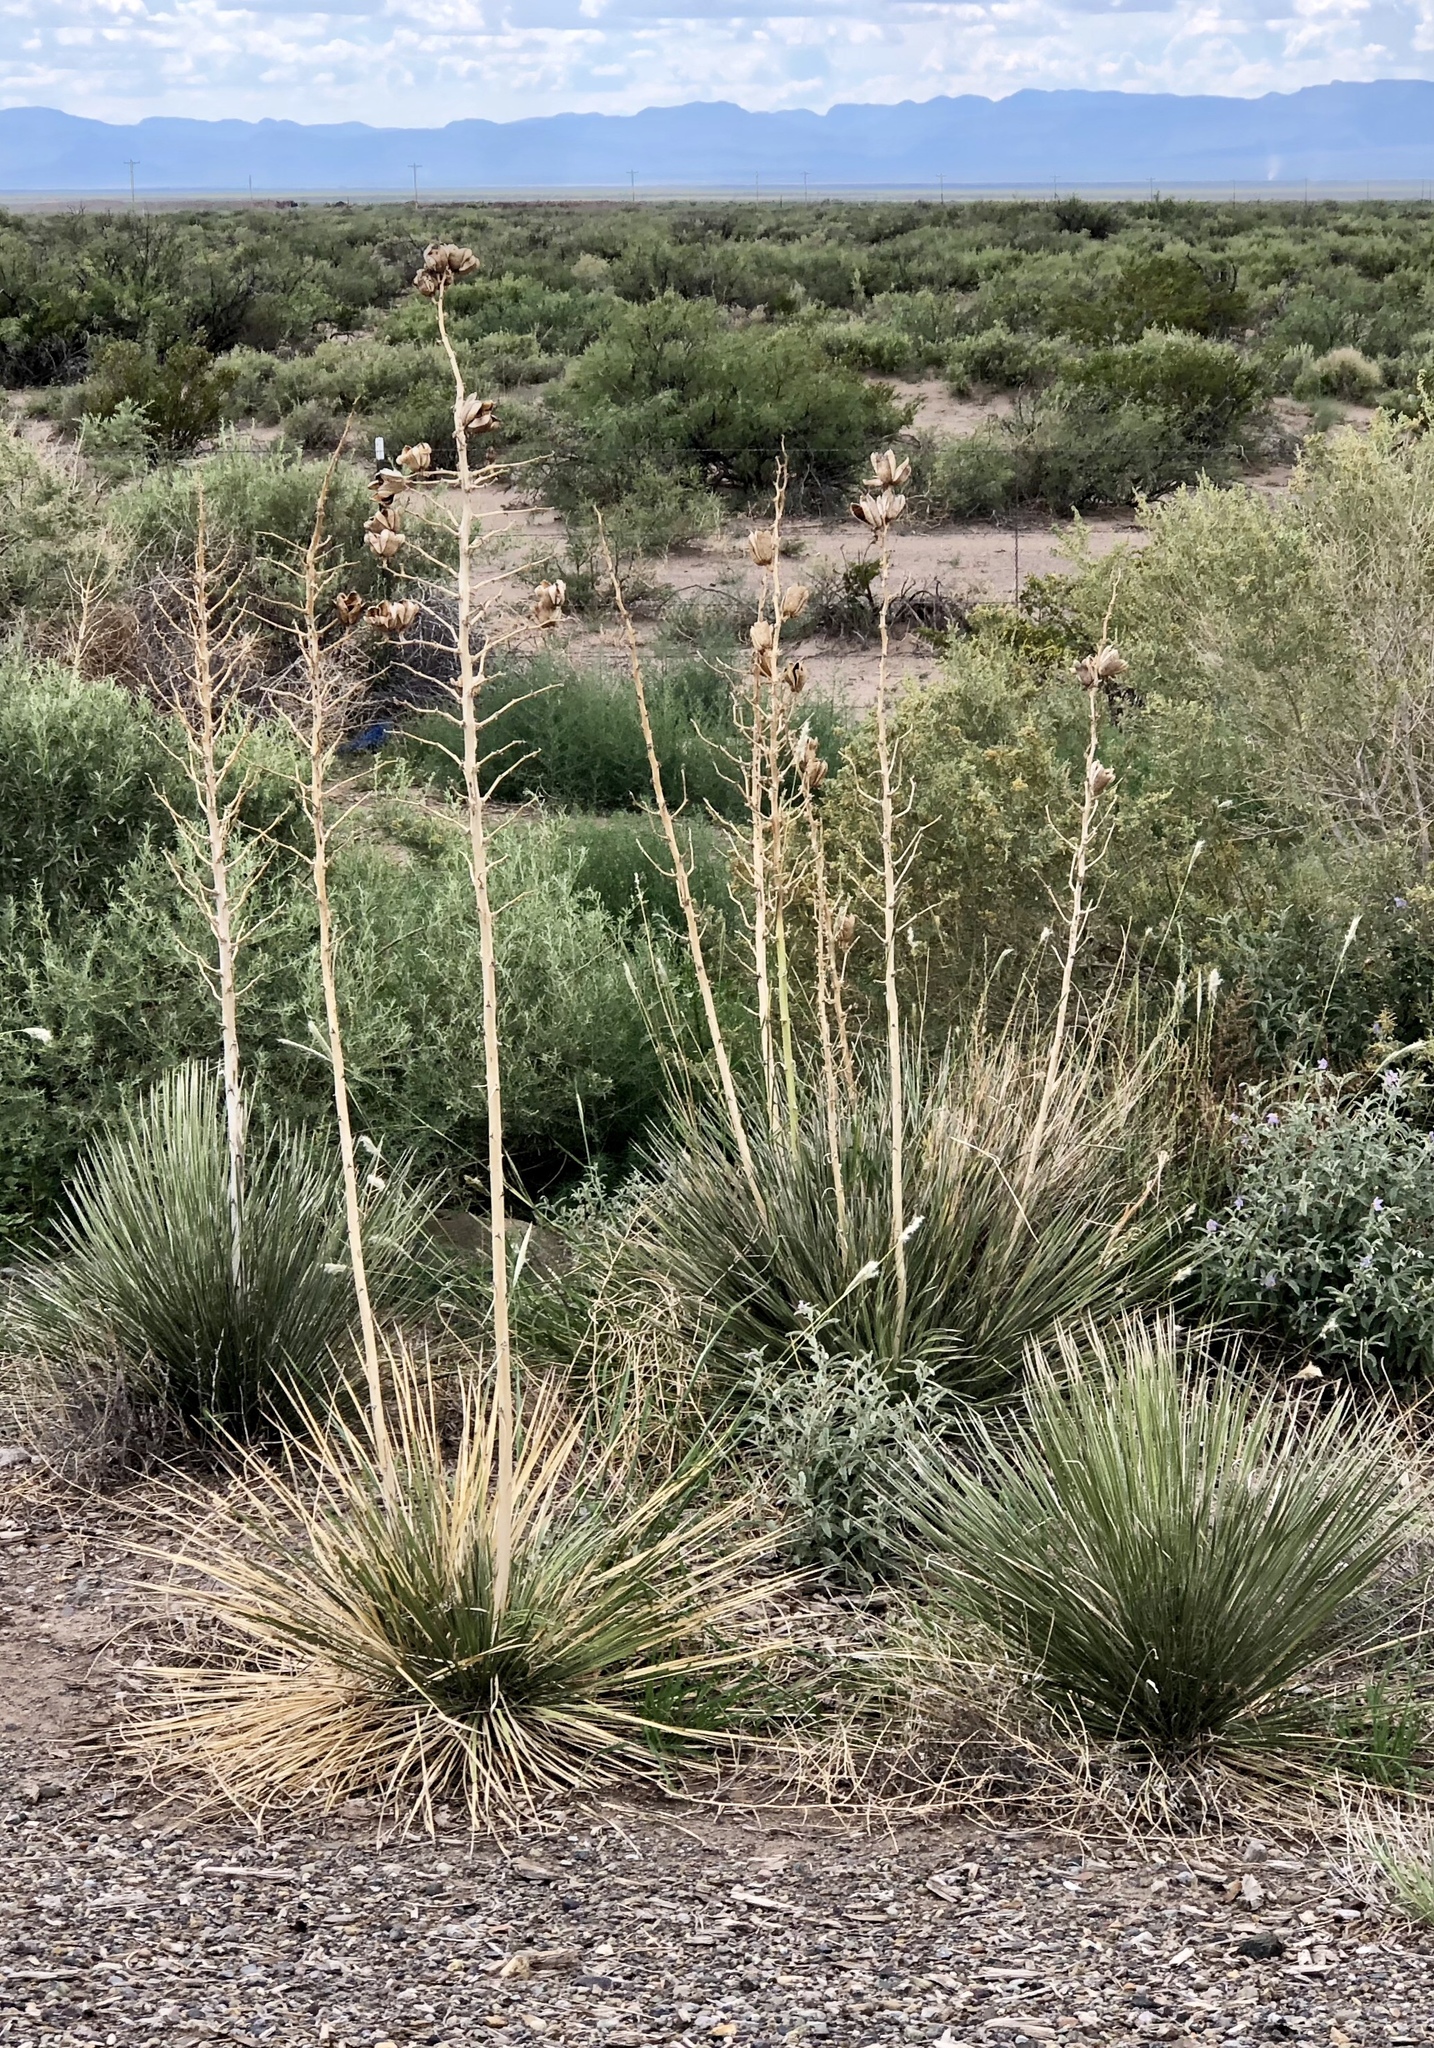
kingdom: Plantae
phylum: Tracheophyta
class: Liliopsida
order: Asparagales
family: Asparagaceae
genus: Yucca
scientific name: Yucca elata
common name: Palmella
